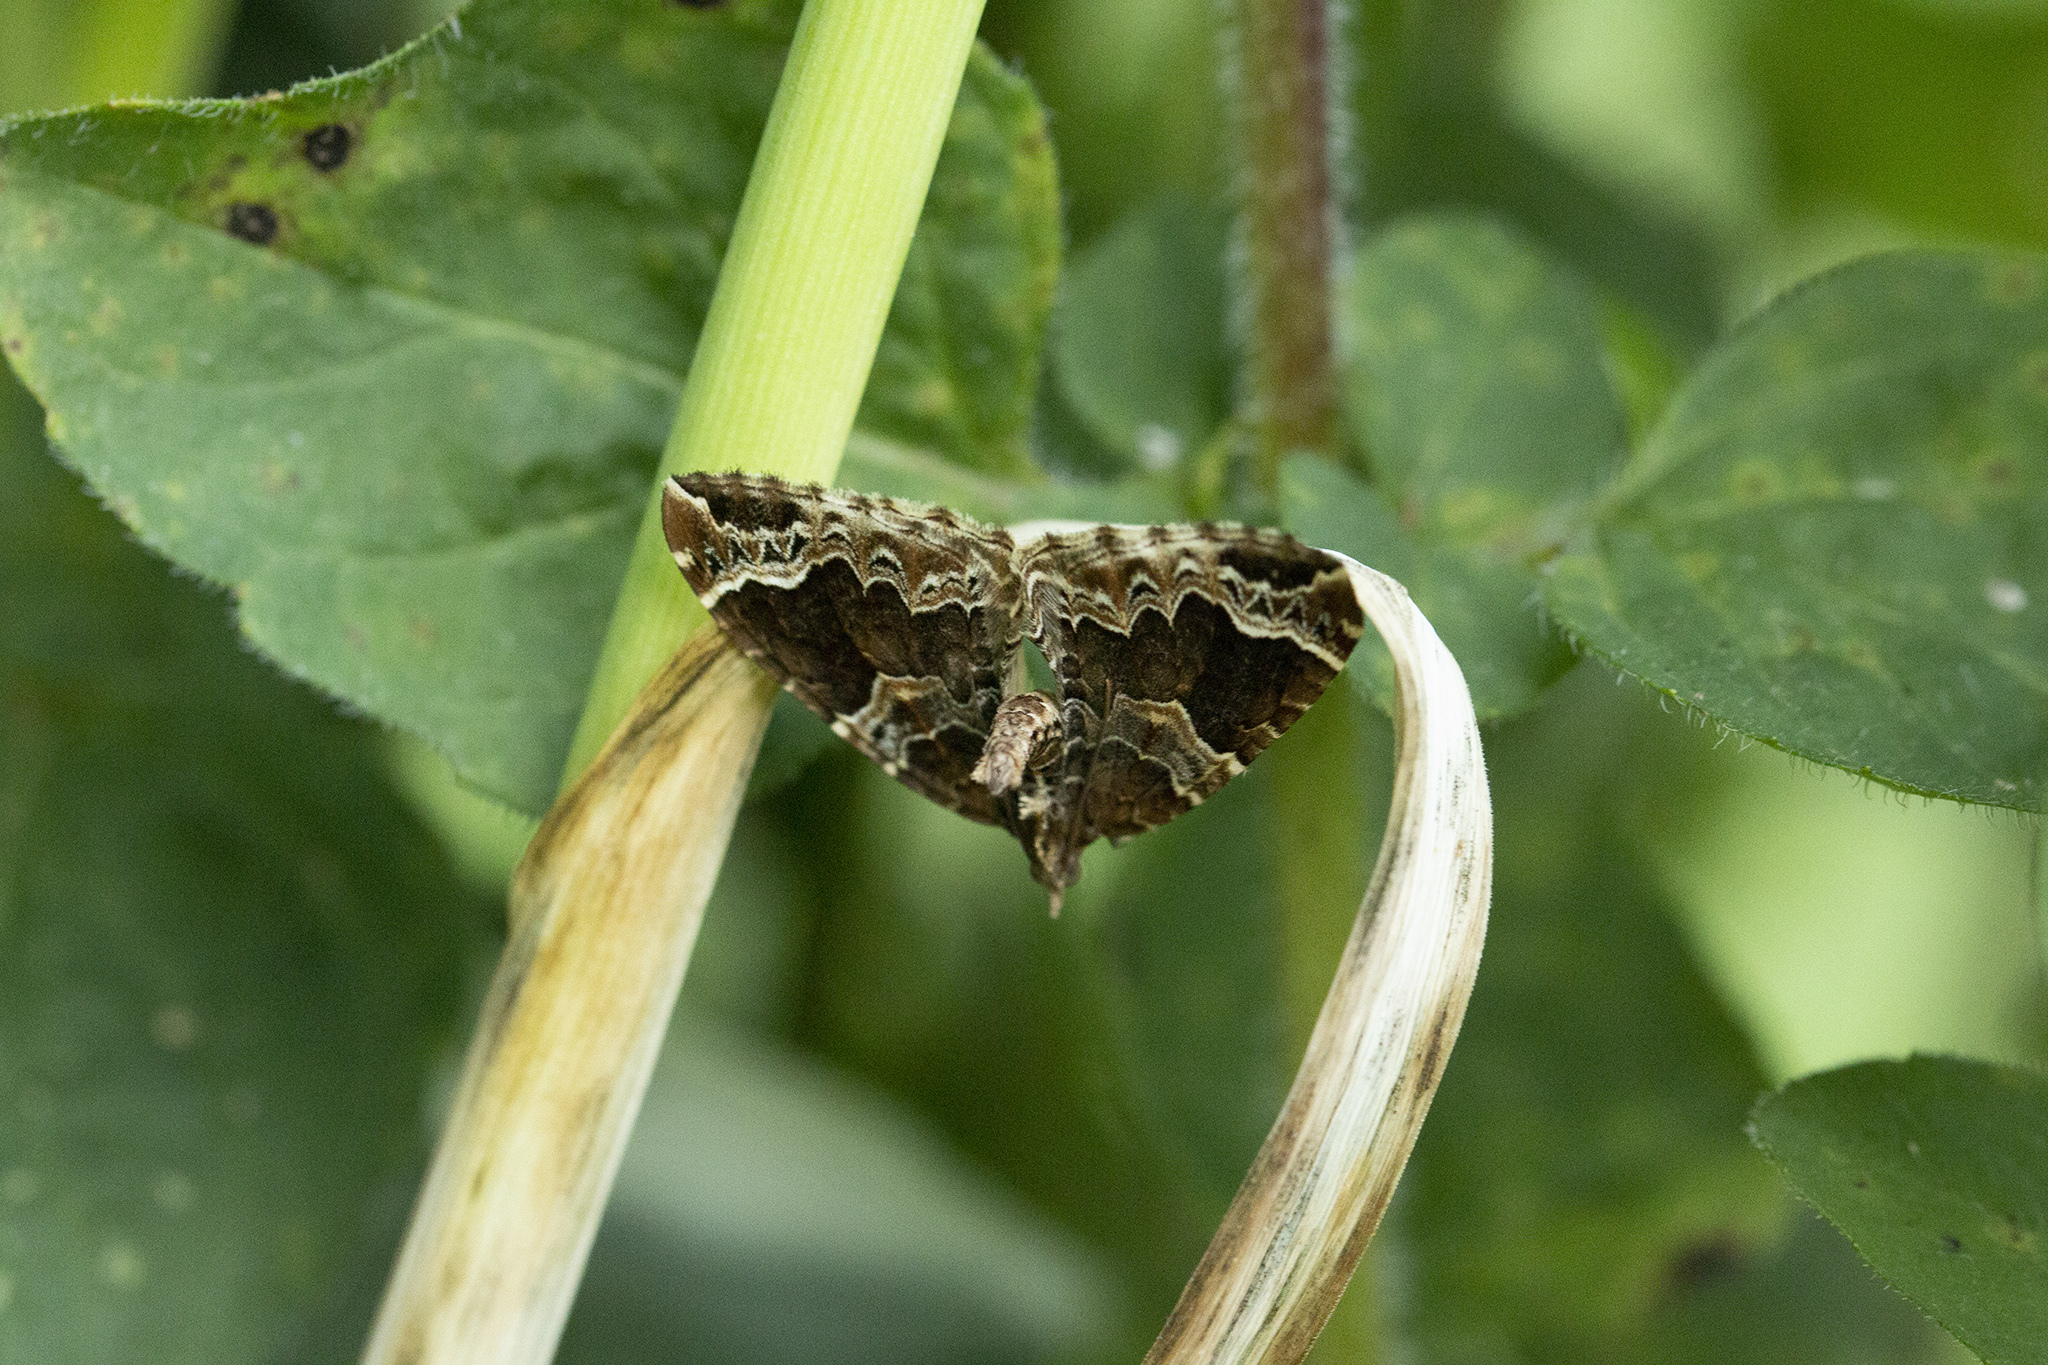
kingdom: Animalia
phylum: Arthropoda
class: Insecta
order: Lepidoptera
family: Geometridae
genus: Eulithis
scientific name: Eulithis prunata
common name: Phoenix
